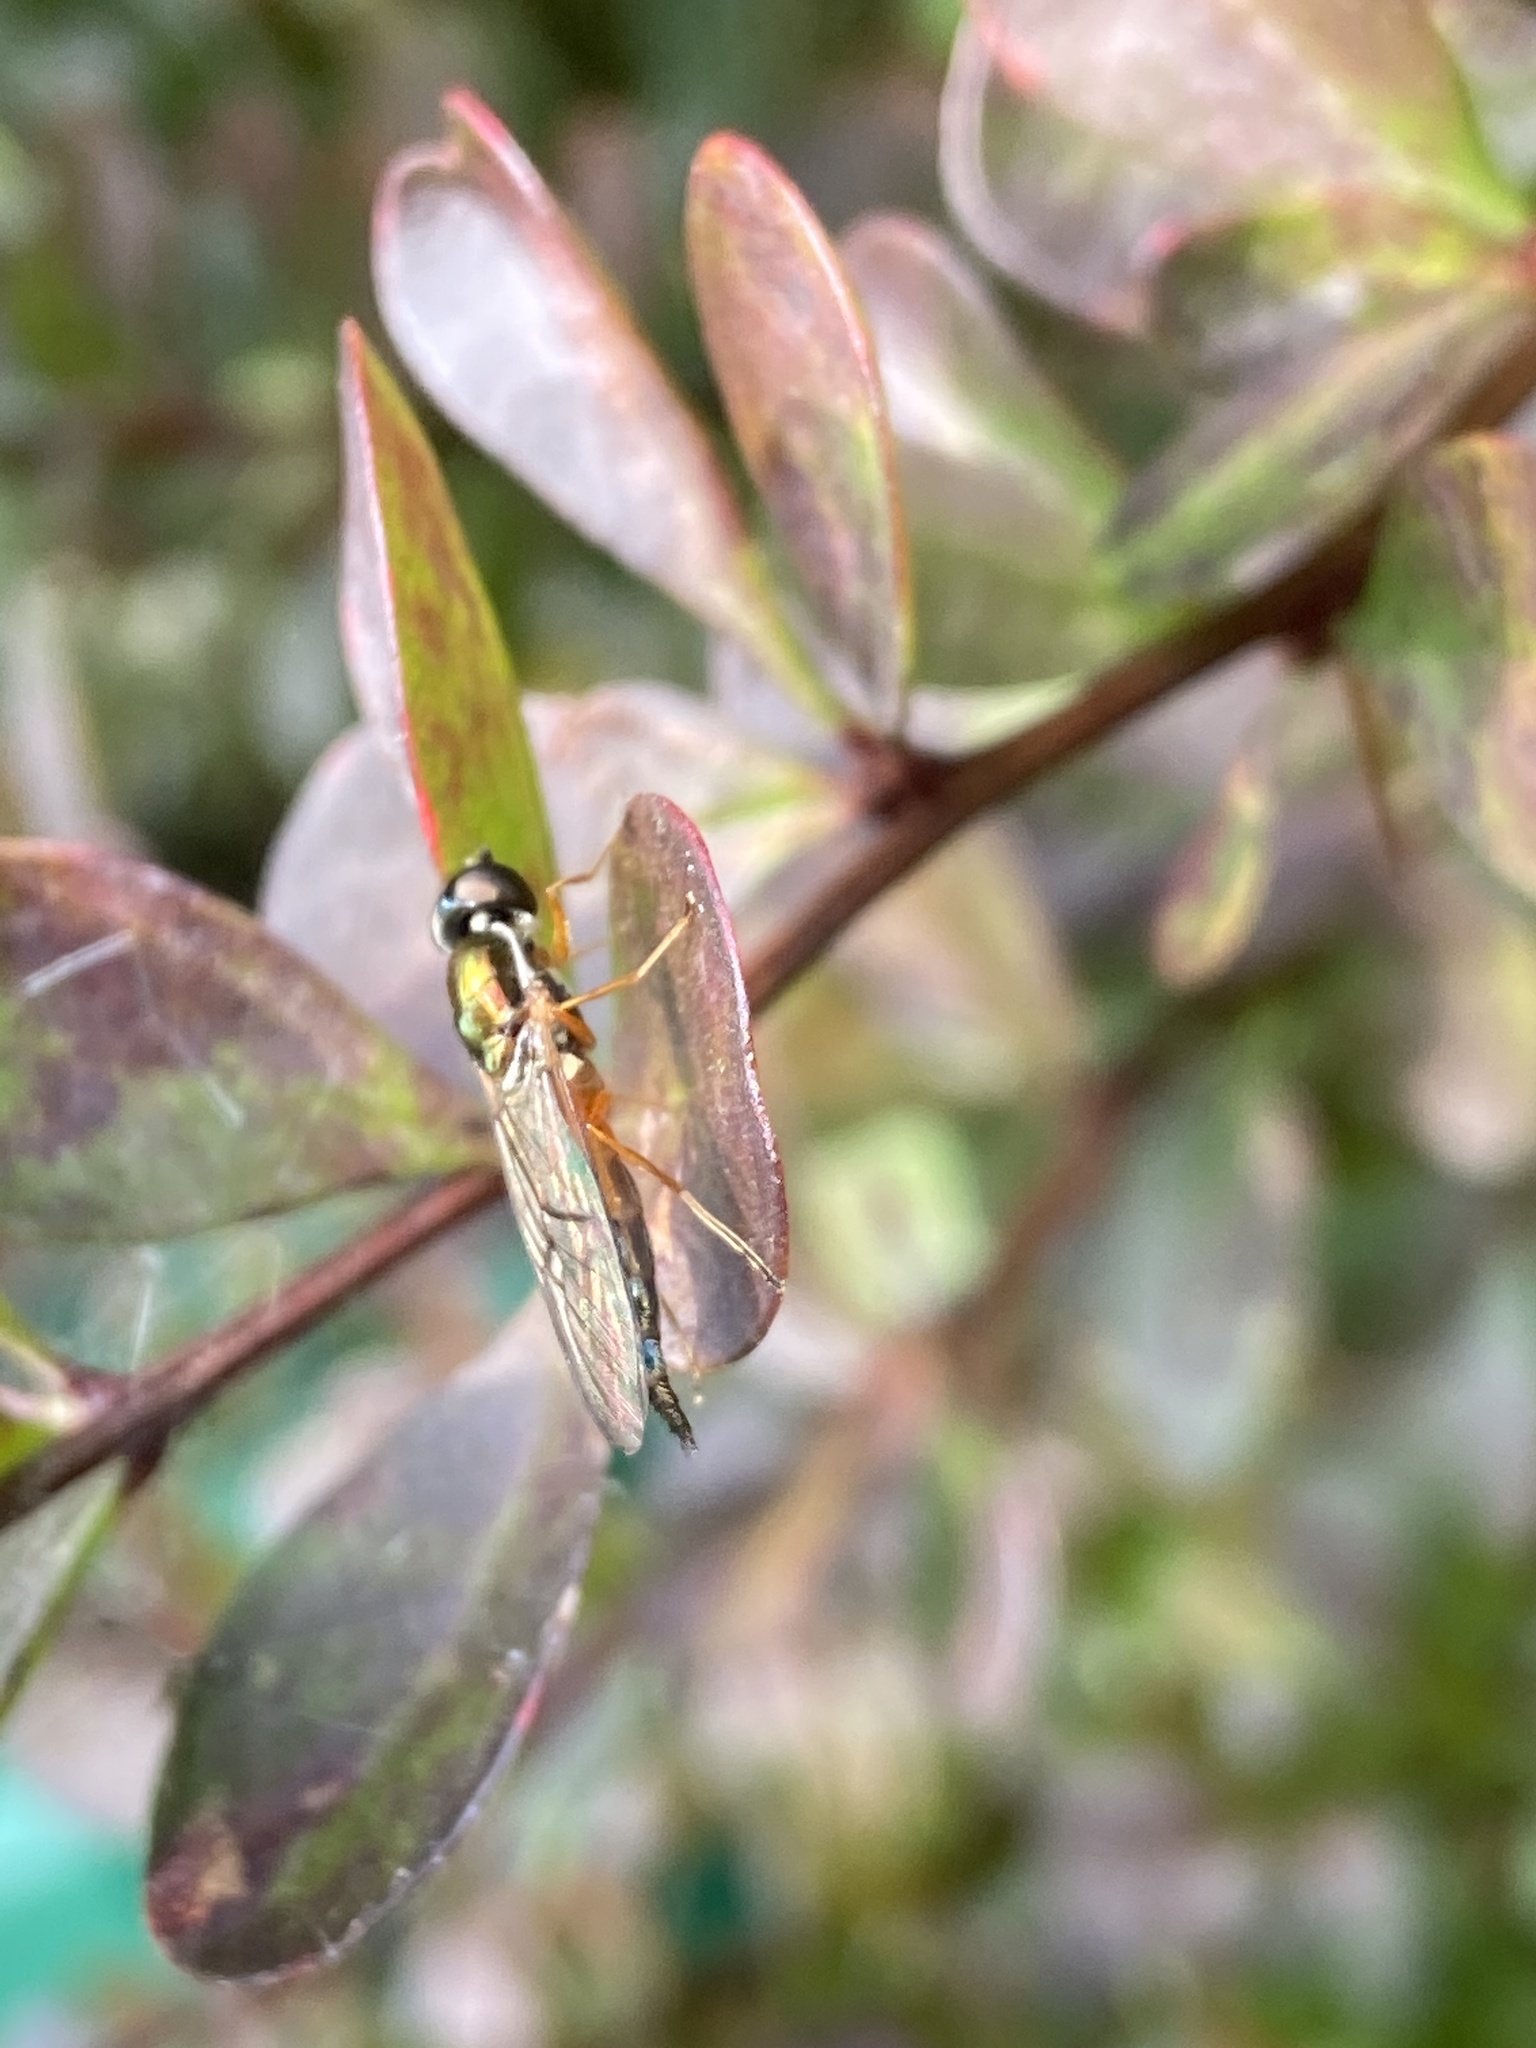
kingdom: Animalia
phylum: Arthropoda
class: Insecta
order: Diptera
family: Stratiomyidae
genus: Sargus
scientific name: Sargus bipunctatus
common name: Twin-spot centurion
